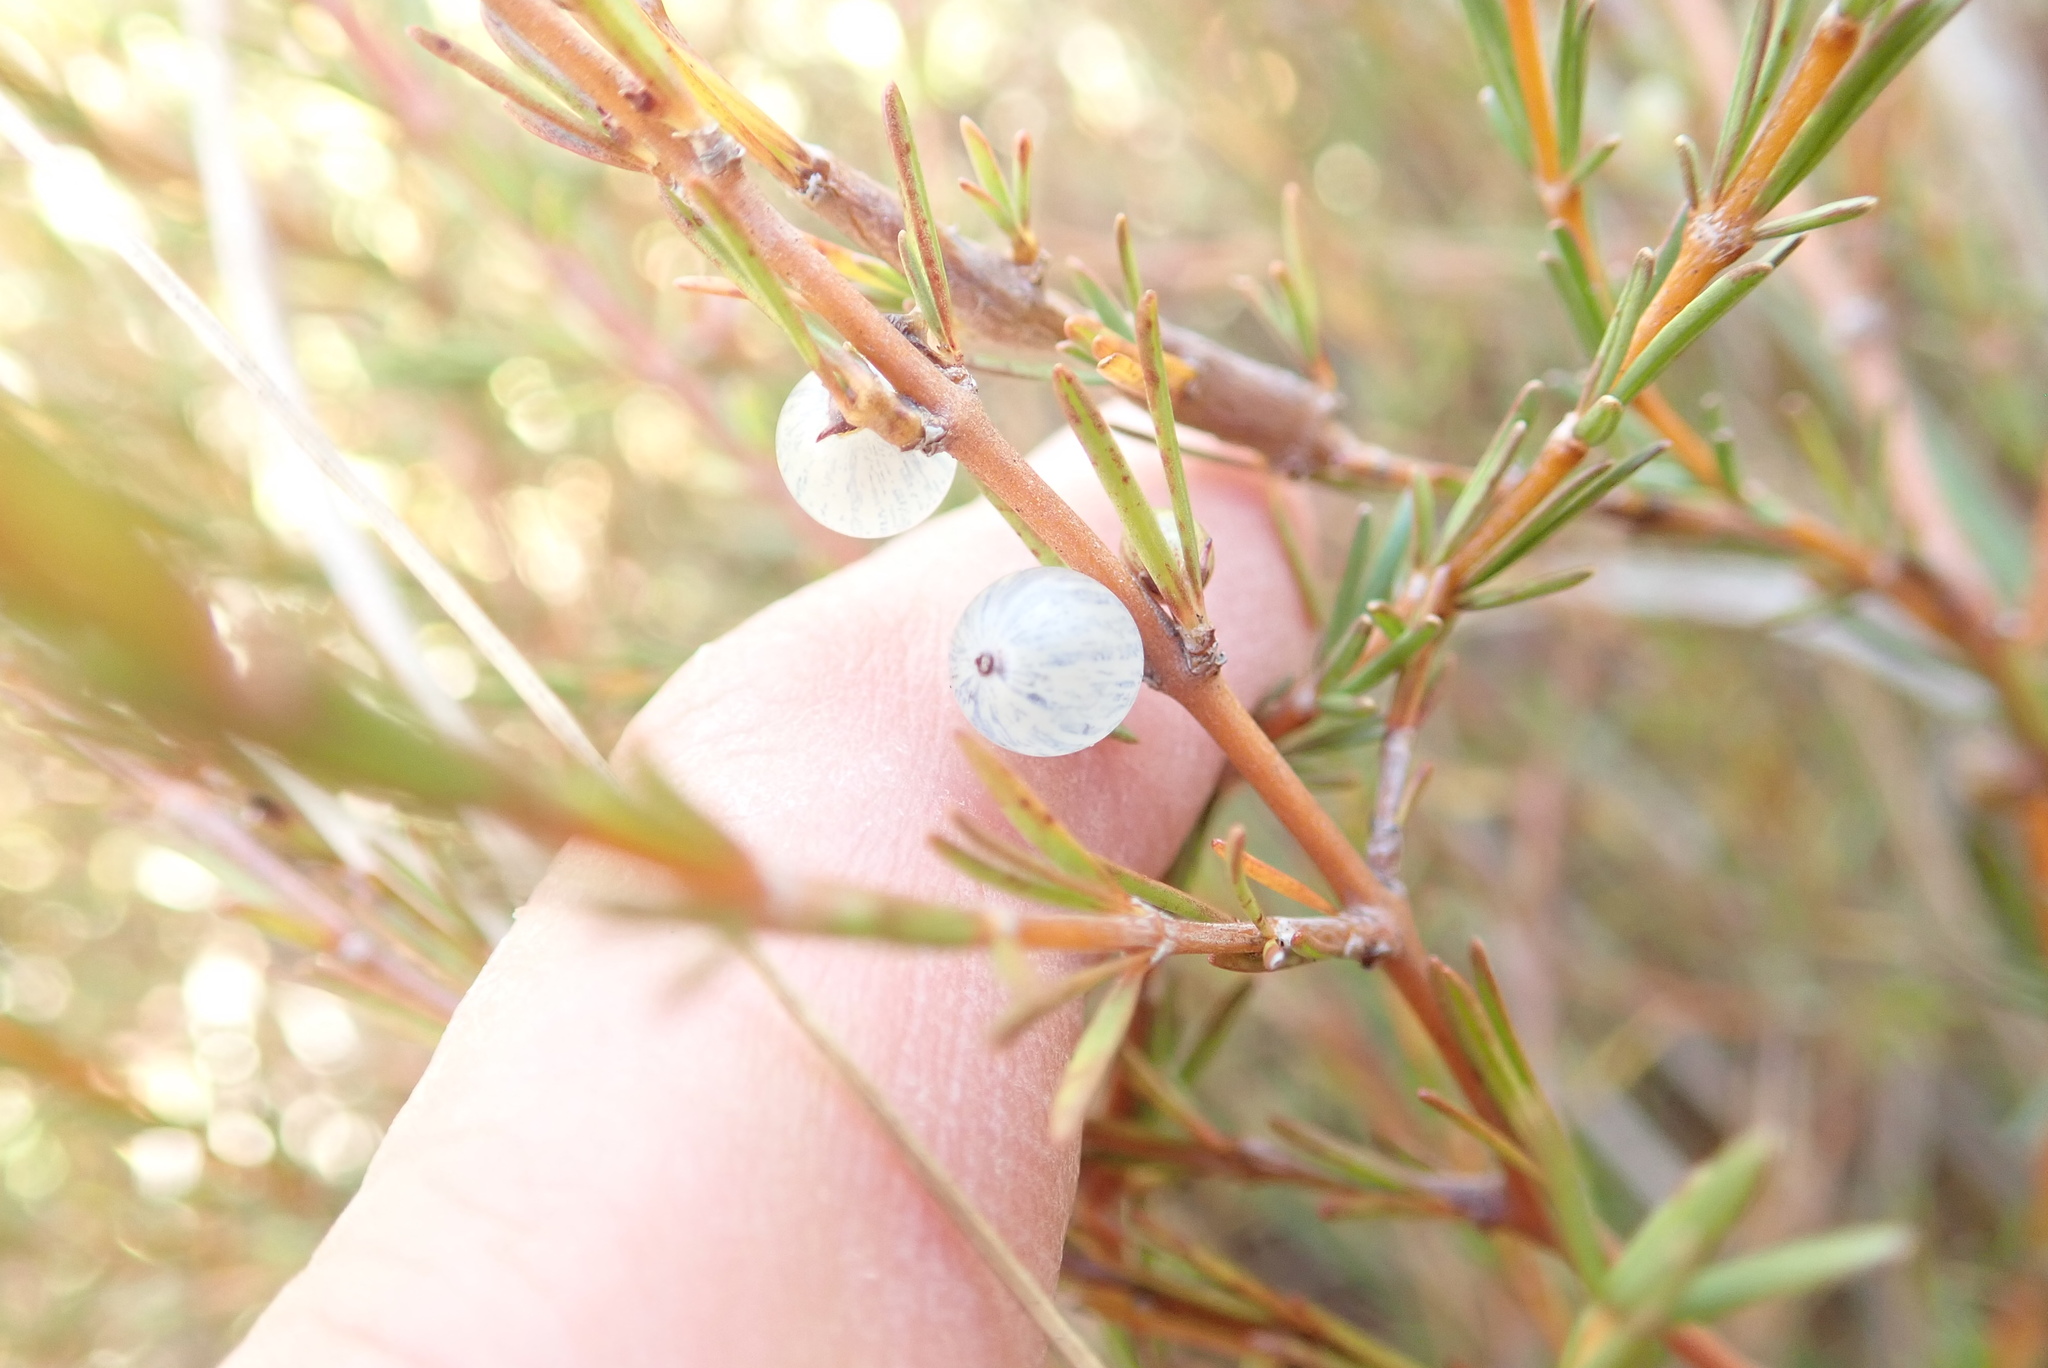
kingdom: Plantae
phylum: Tracheophyta
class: Magnoliopsida
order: Gentianales
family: Rubiaceae
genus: Coprosma
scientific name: Coprosma acerosa
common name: Sand coprosma
